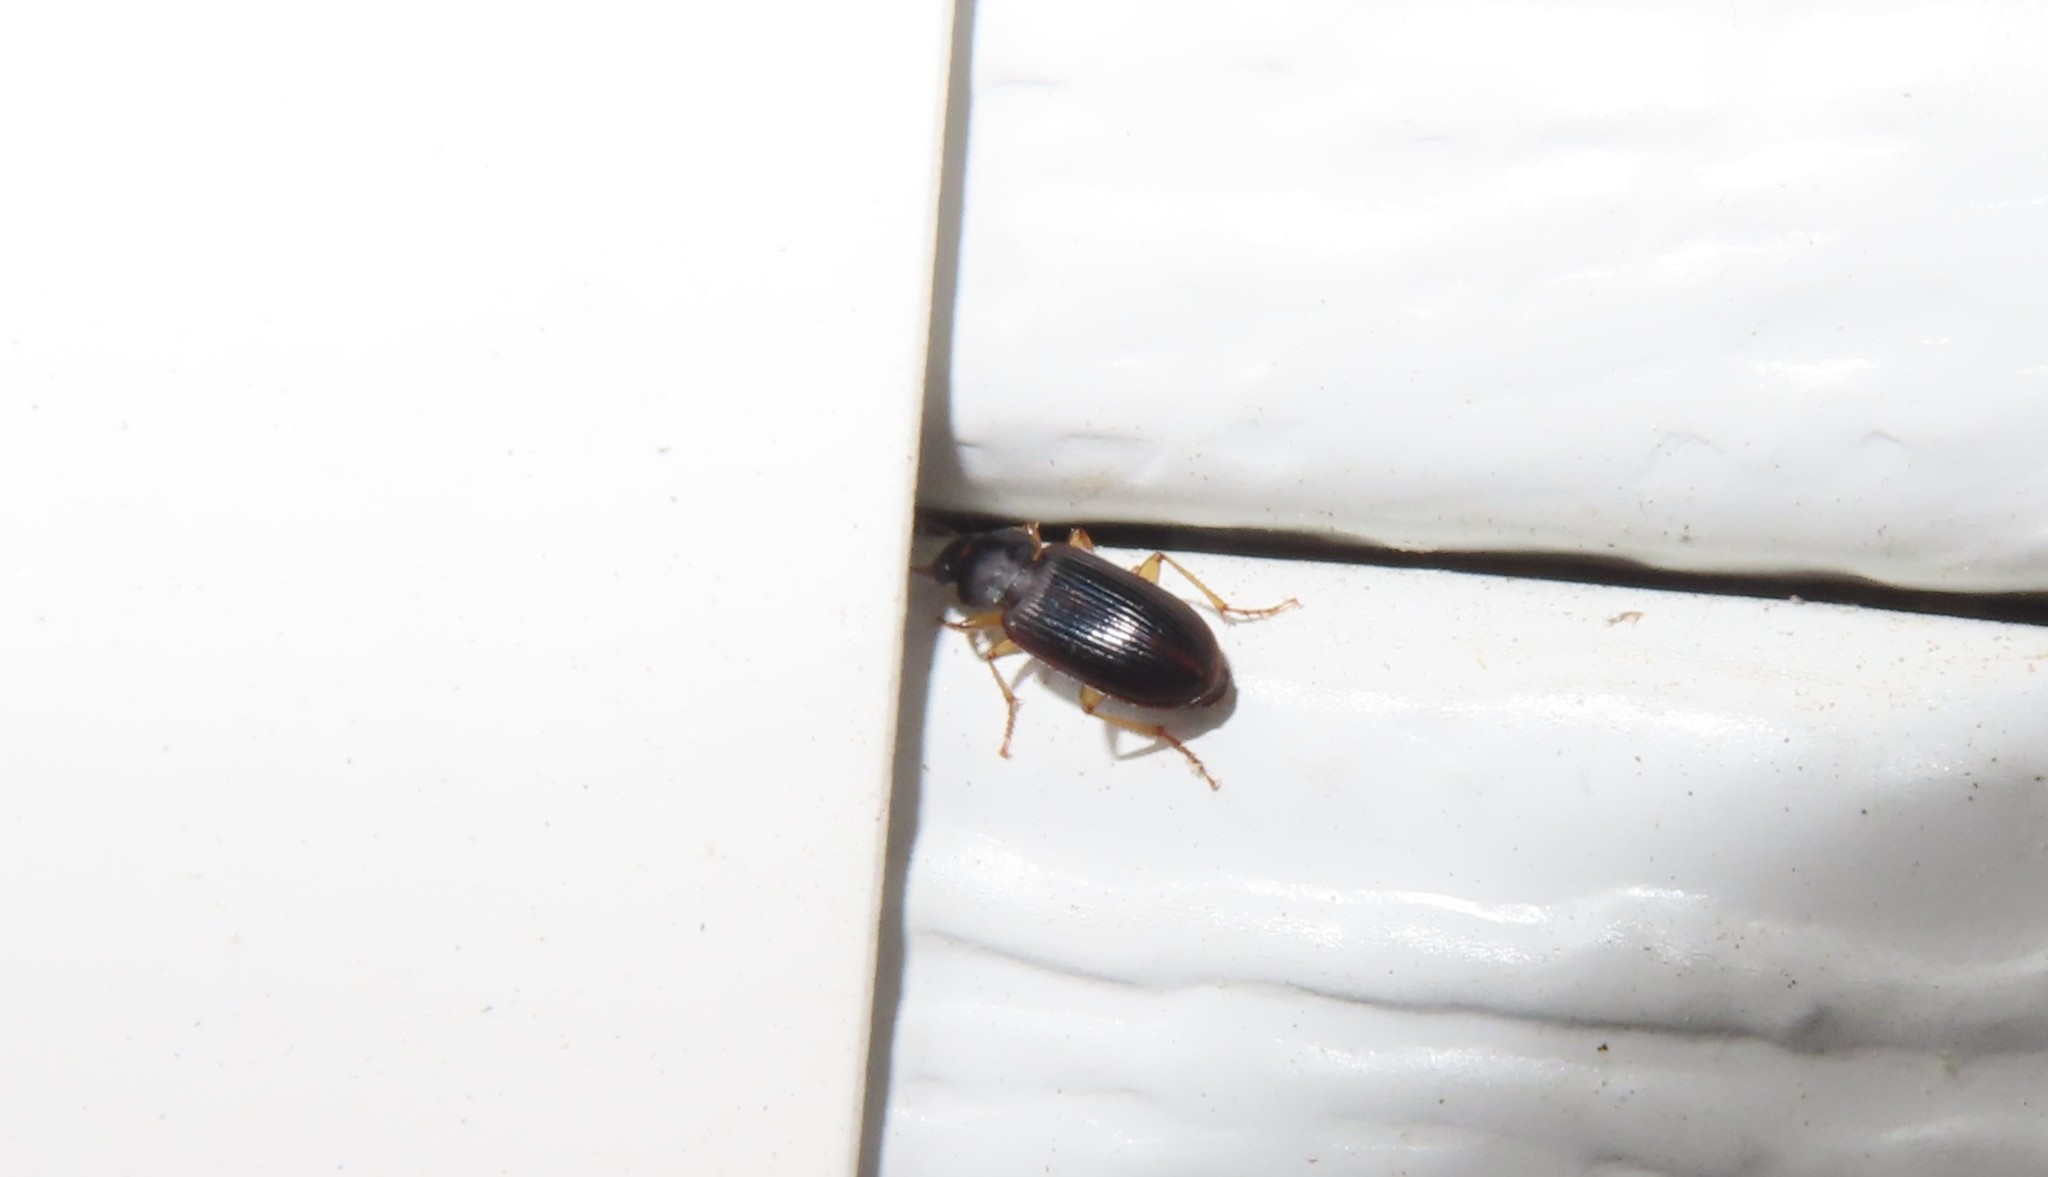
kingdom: Animalia
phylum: Arthropoda
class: Insecta
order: Coleoptera
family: Carabidae
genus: Stenolophus
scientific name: Stenolophus ochropezus
